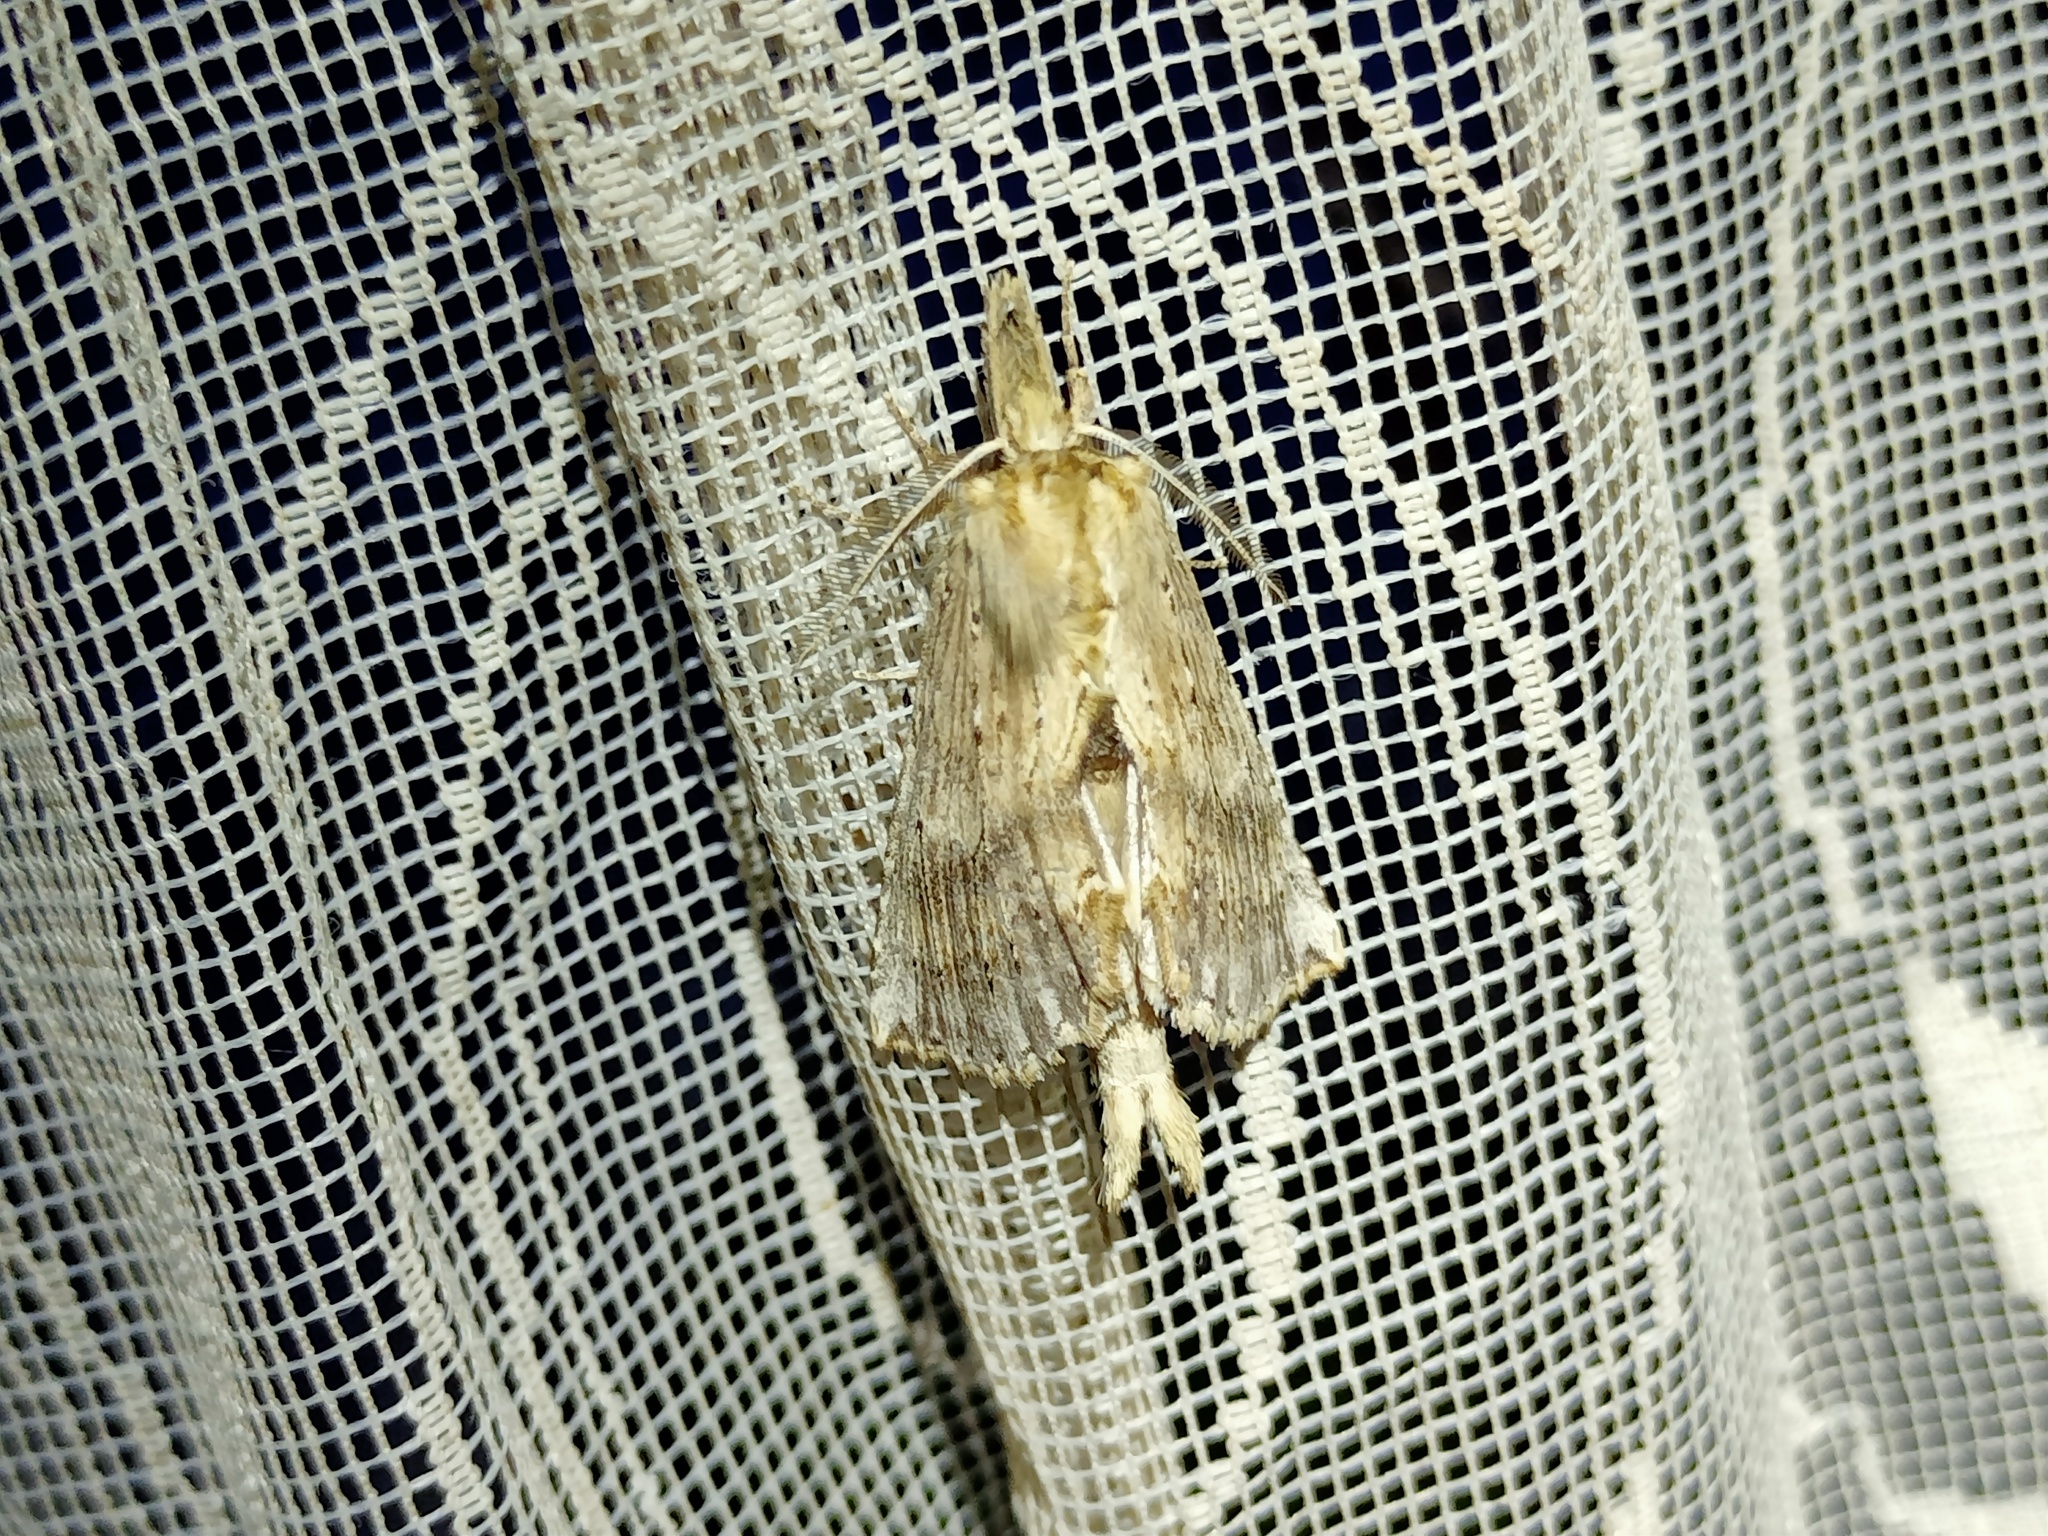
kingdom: Animalia
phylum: Arthropoda
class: Insecta
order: Lepidoptera
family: Notodontidae
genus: Pterostoma
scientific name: Pterostoma palpina
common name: Pale prominent
